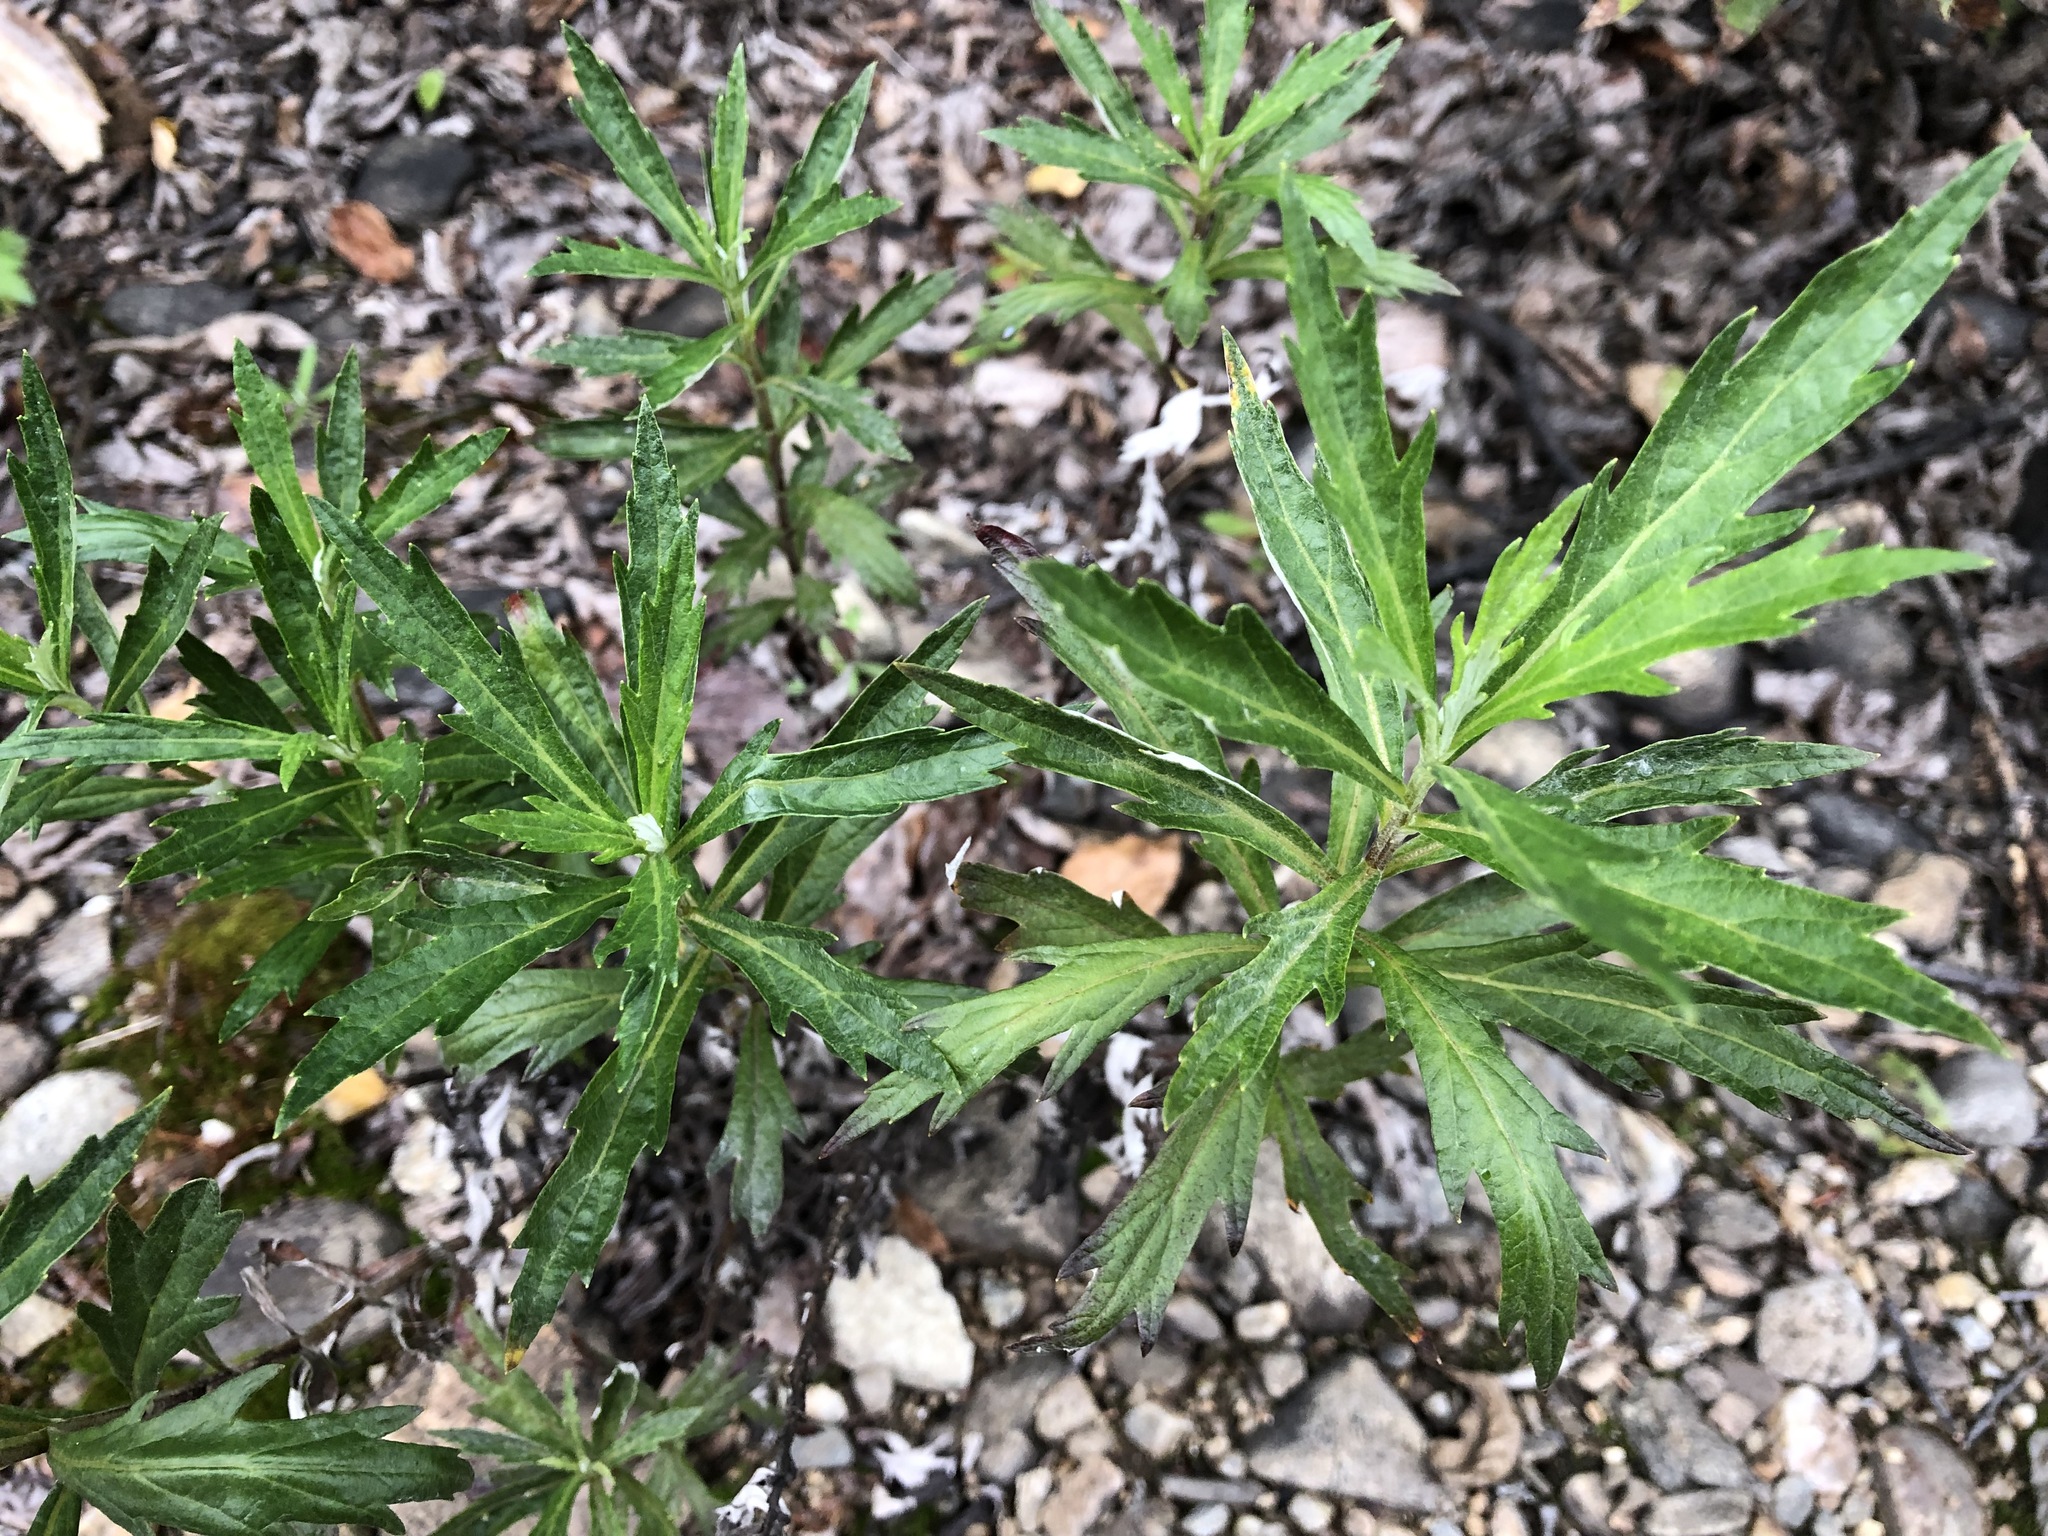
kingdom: Plantae
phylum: Tracheophyta
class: Magnoliopsida
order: Asterales
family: Asteraceae
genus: Artemisia
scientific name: Artemisia tilesii
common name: Aleutian mugwort
